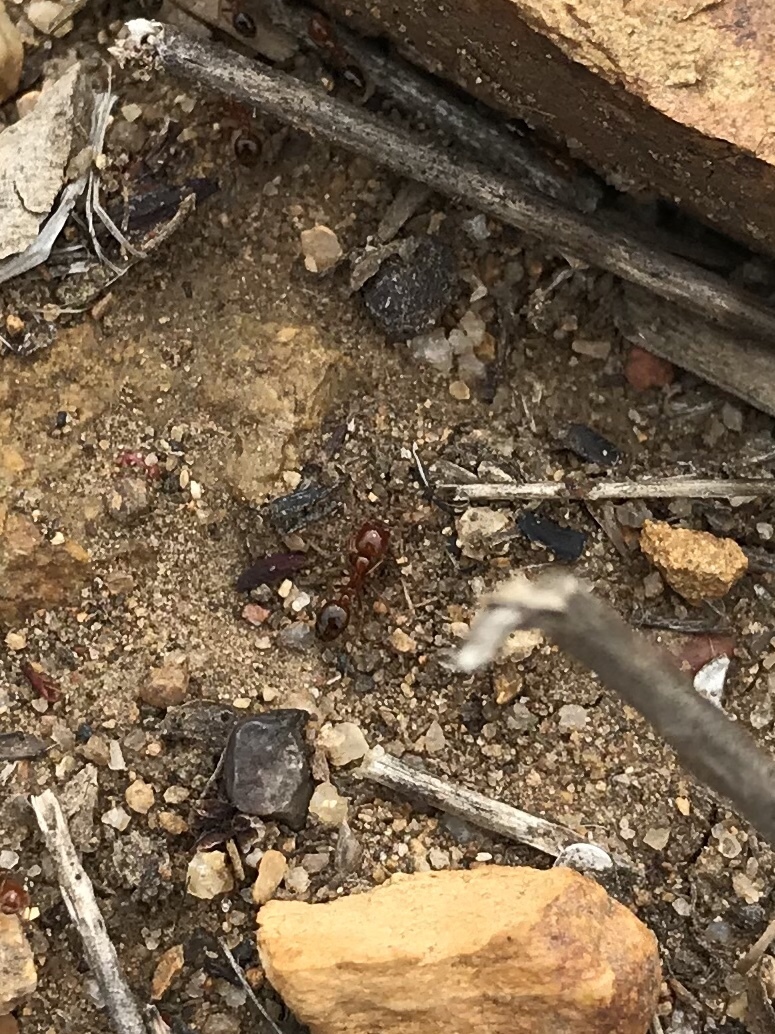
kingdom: Animalia
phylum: Arthropoda
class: Insecta
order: Hymenoptera
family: Formicidae
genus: Solenopsis
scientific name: Solenopsis xyloni
